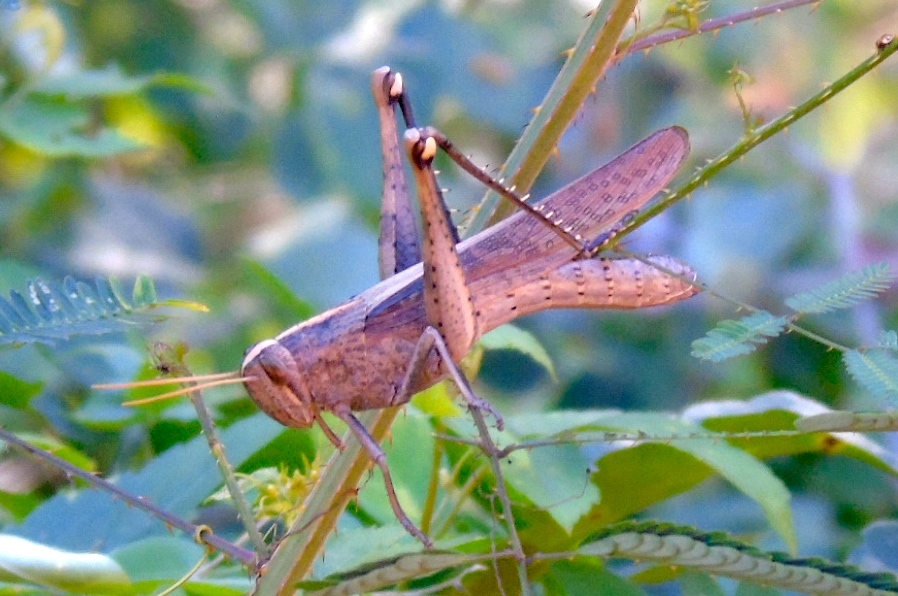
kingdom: Animalia
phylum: Arthropoda
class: Insecta
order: Orthoptera
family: Acrididae
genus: Schistocerca
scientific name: Schistocerca
